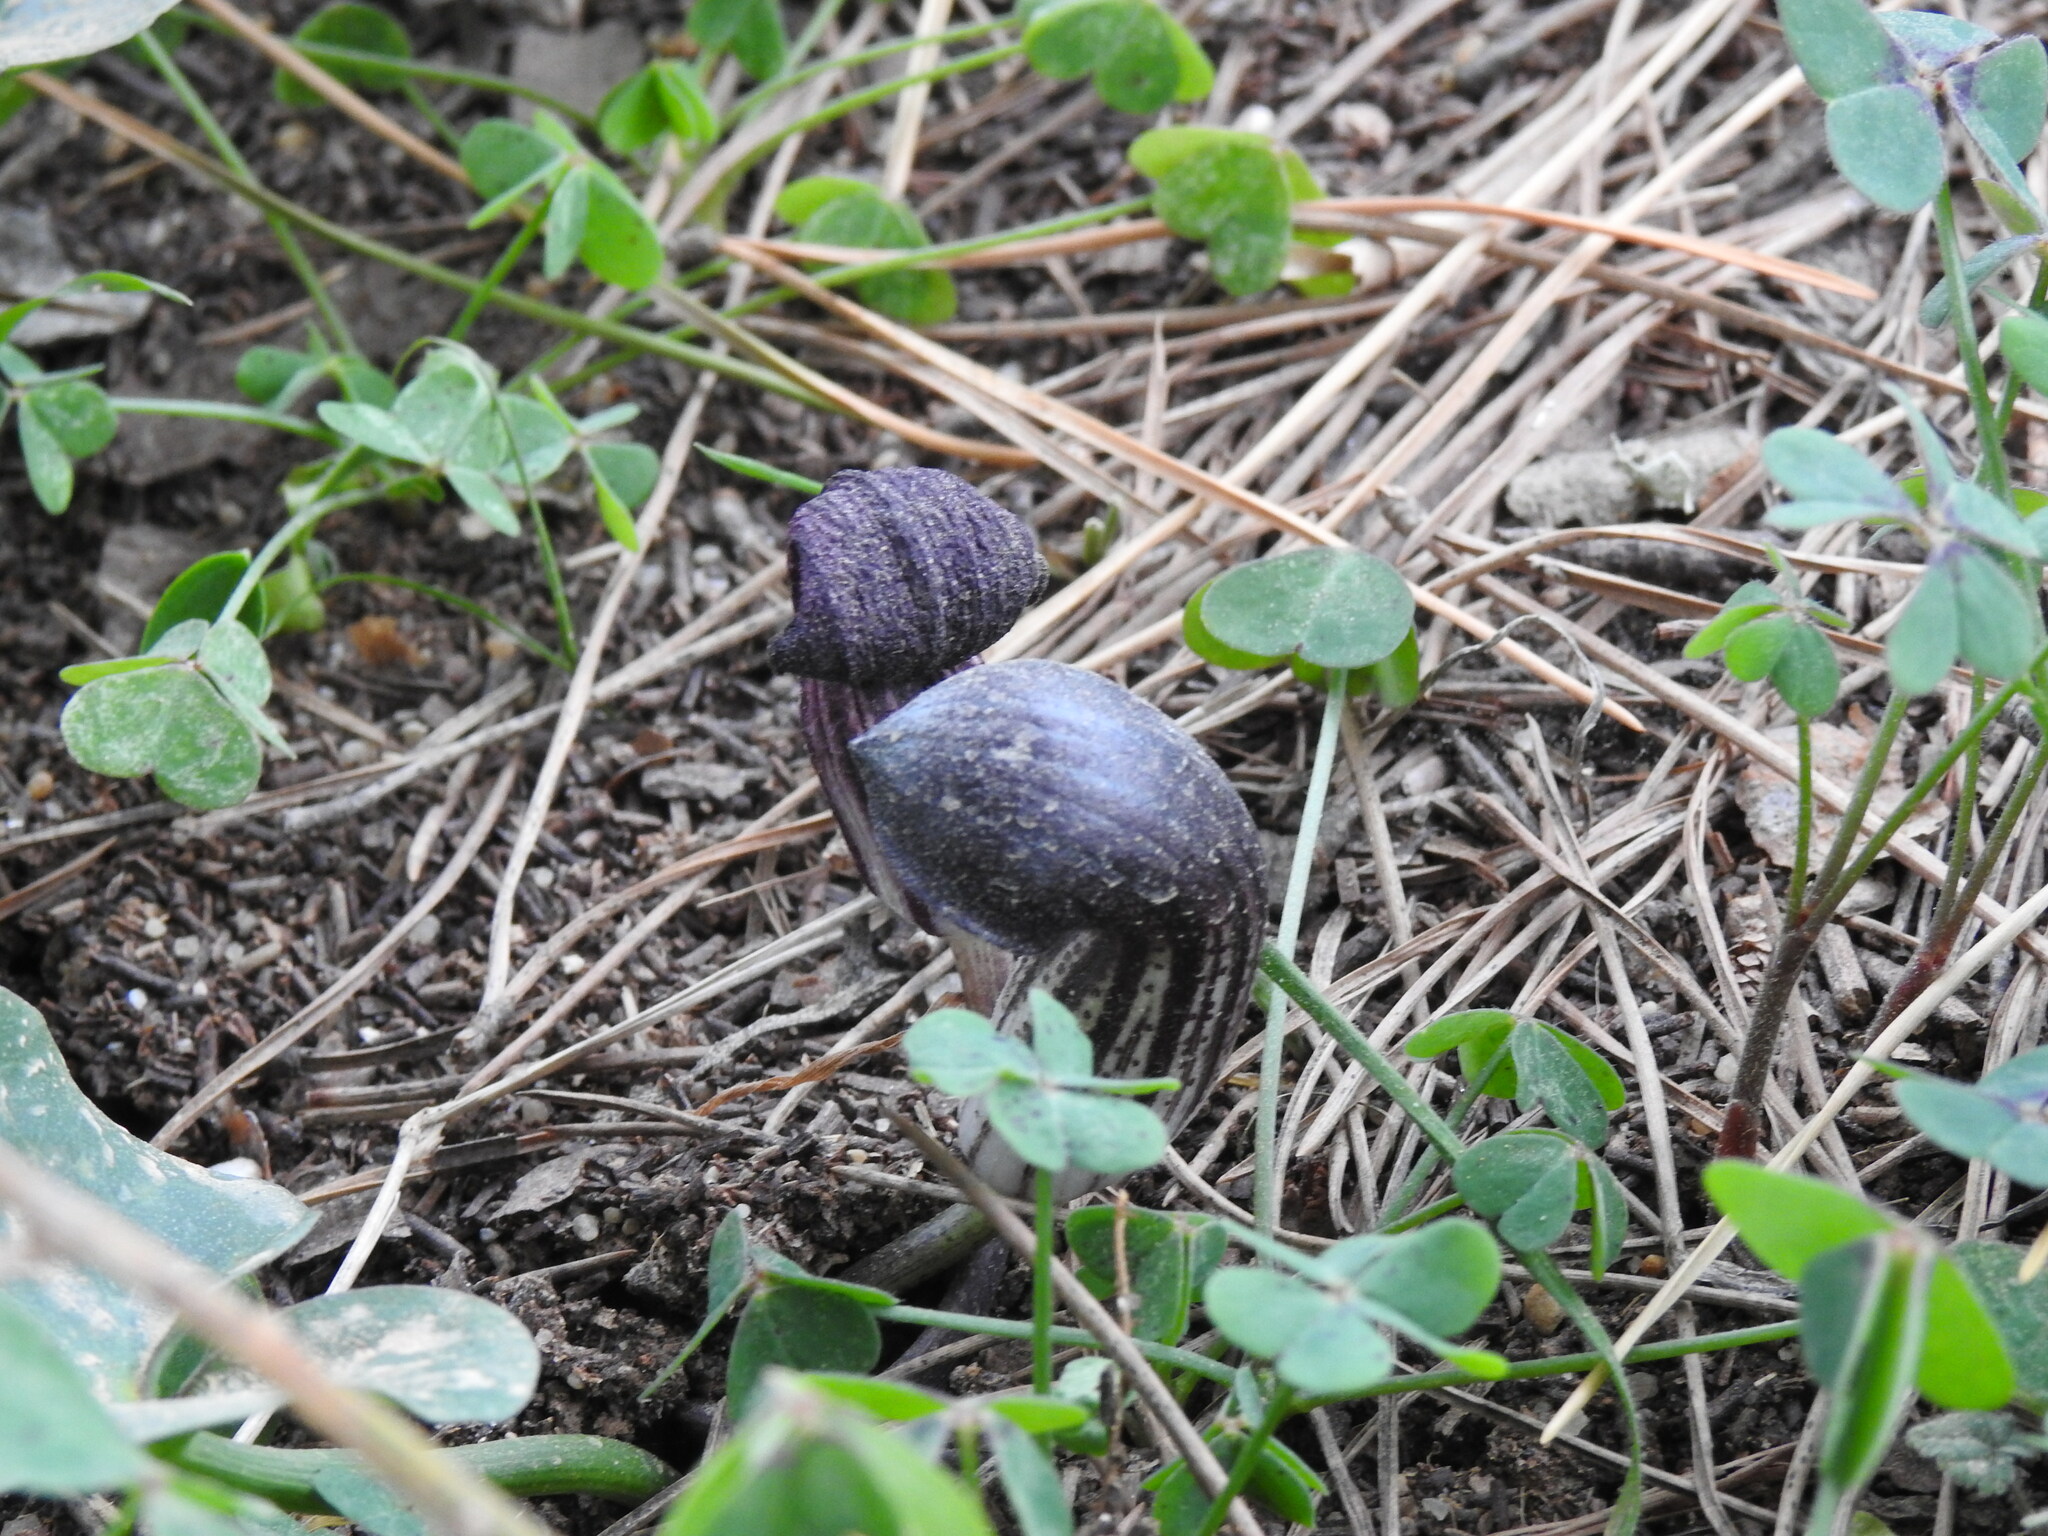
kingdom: Plantae
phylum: Tracheophyta
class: Liliopsida
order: Alismatales
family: Araceae
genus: Arisarum
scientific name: Arisarum simorrhinum
